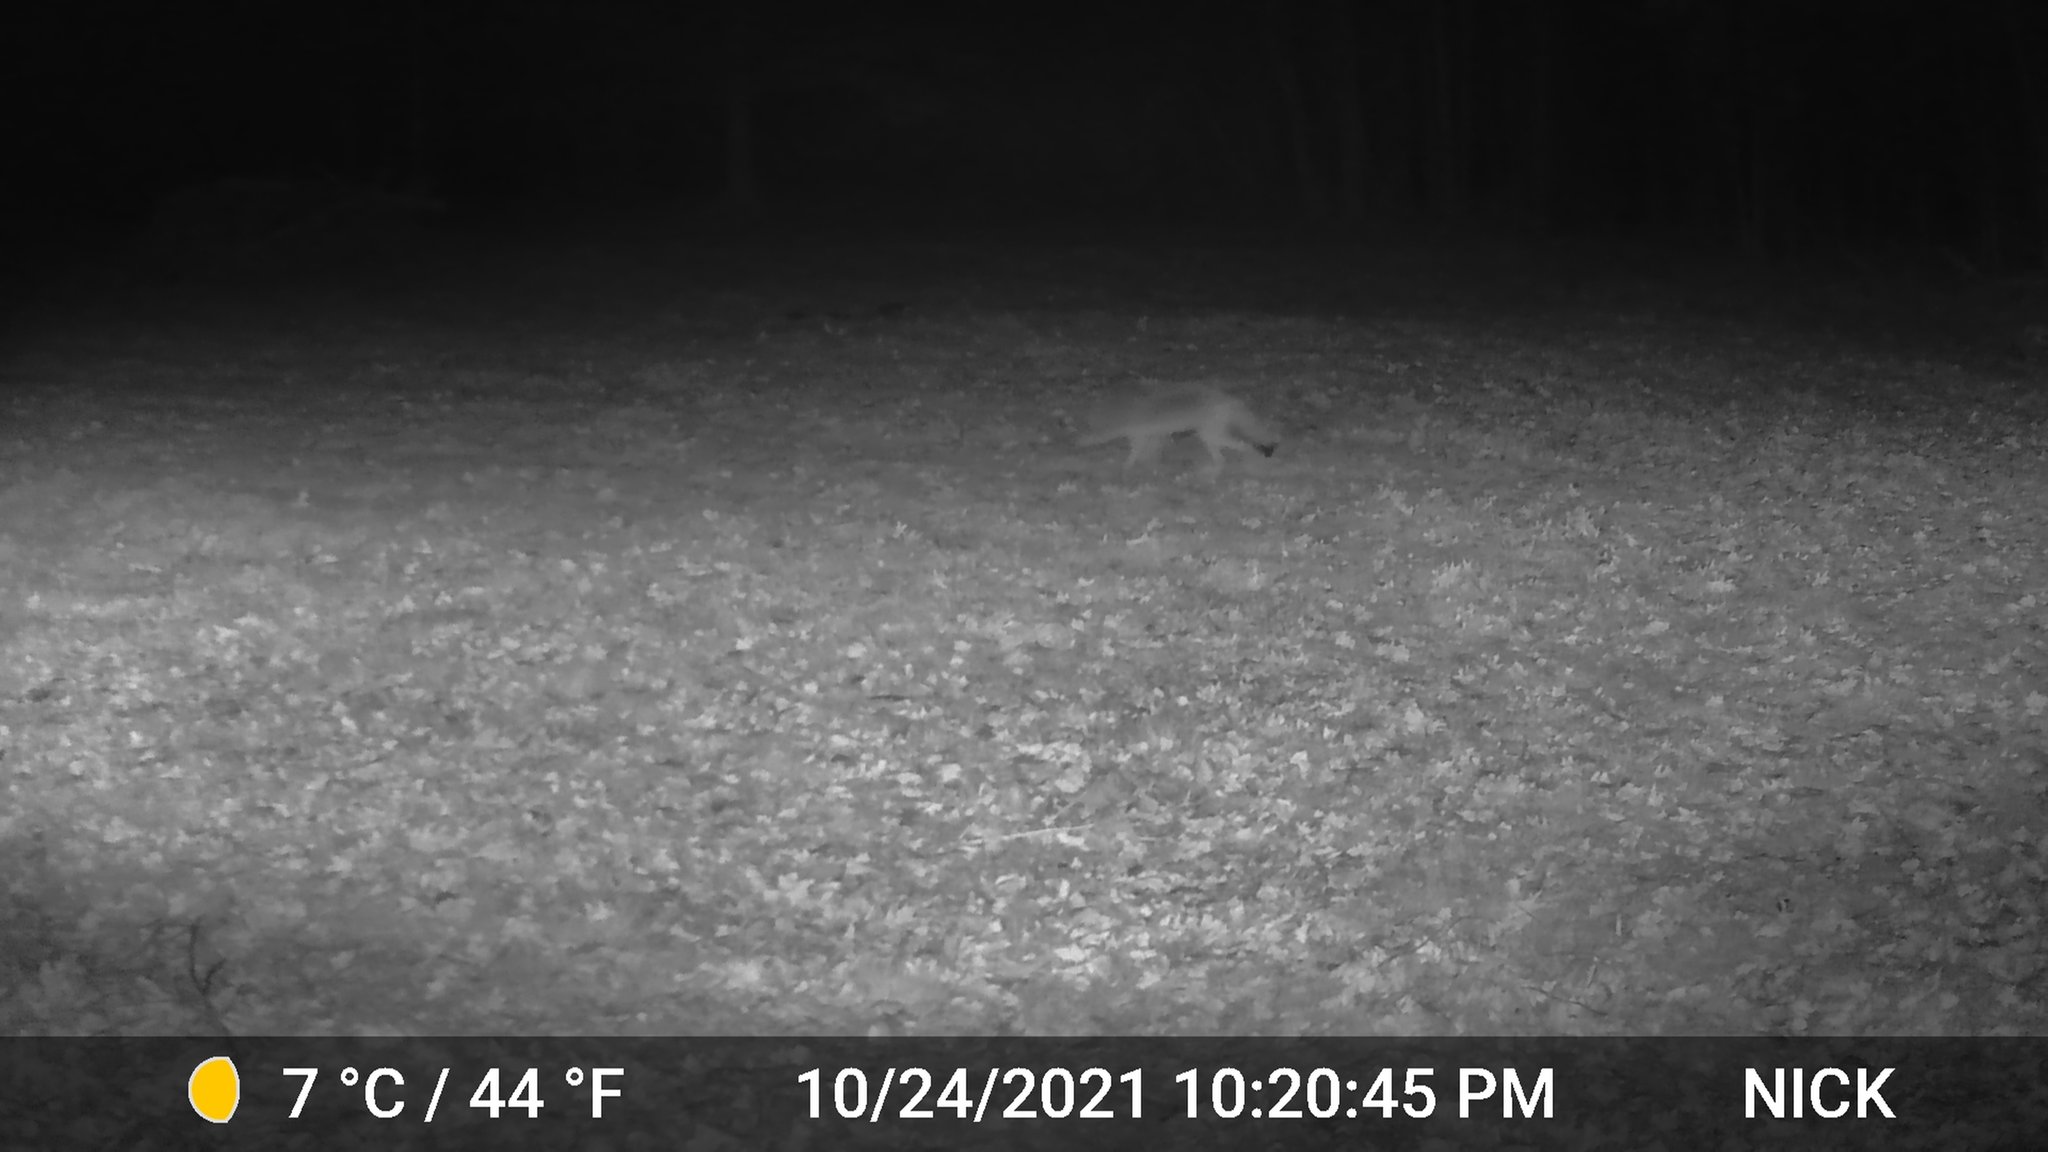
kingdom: Animalia
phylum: Chordata
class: Mammalia
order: Carnivora
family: Canidae
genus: Canis
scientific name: Canis latrans
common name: Coyote
